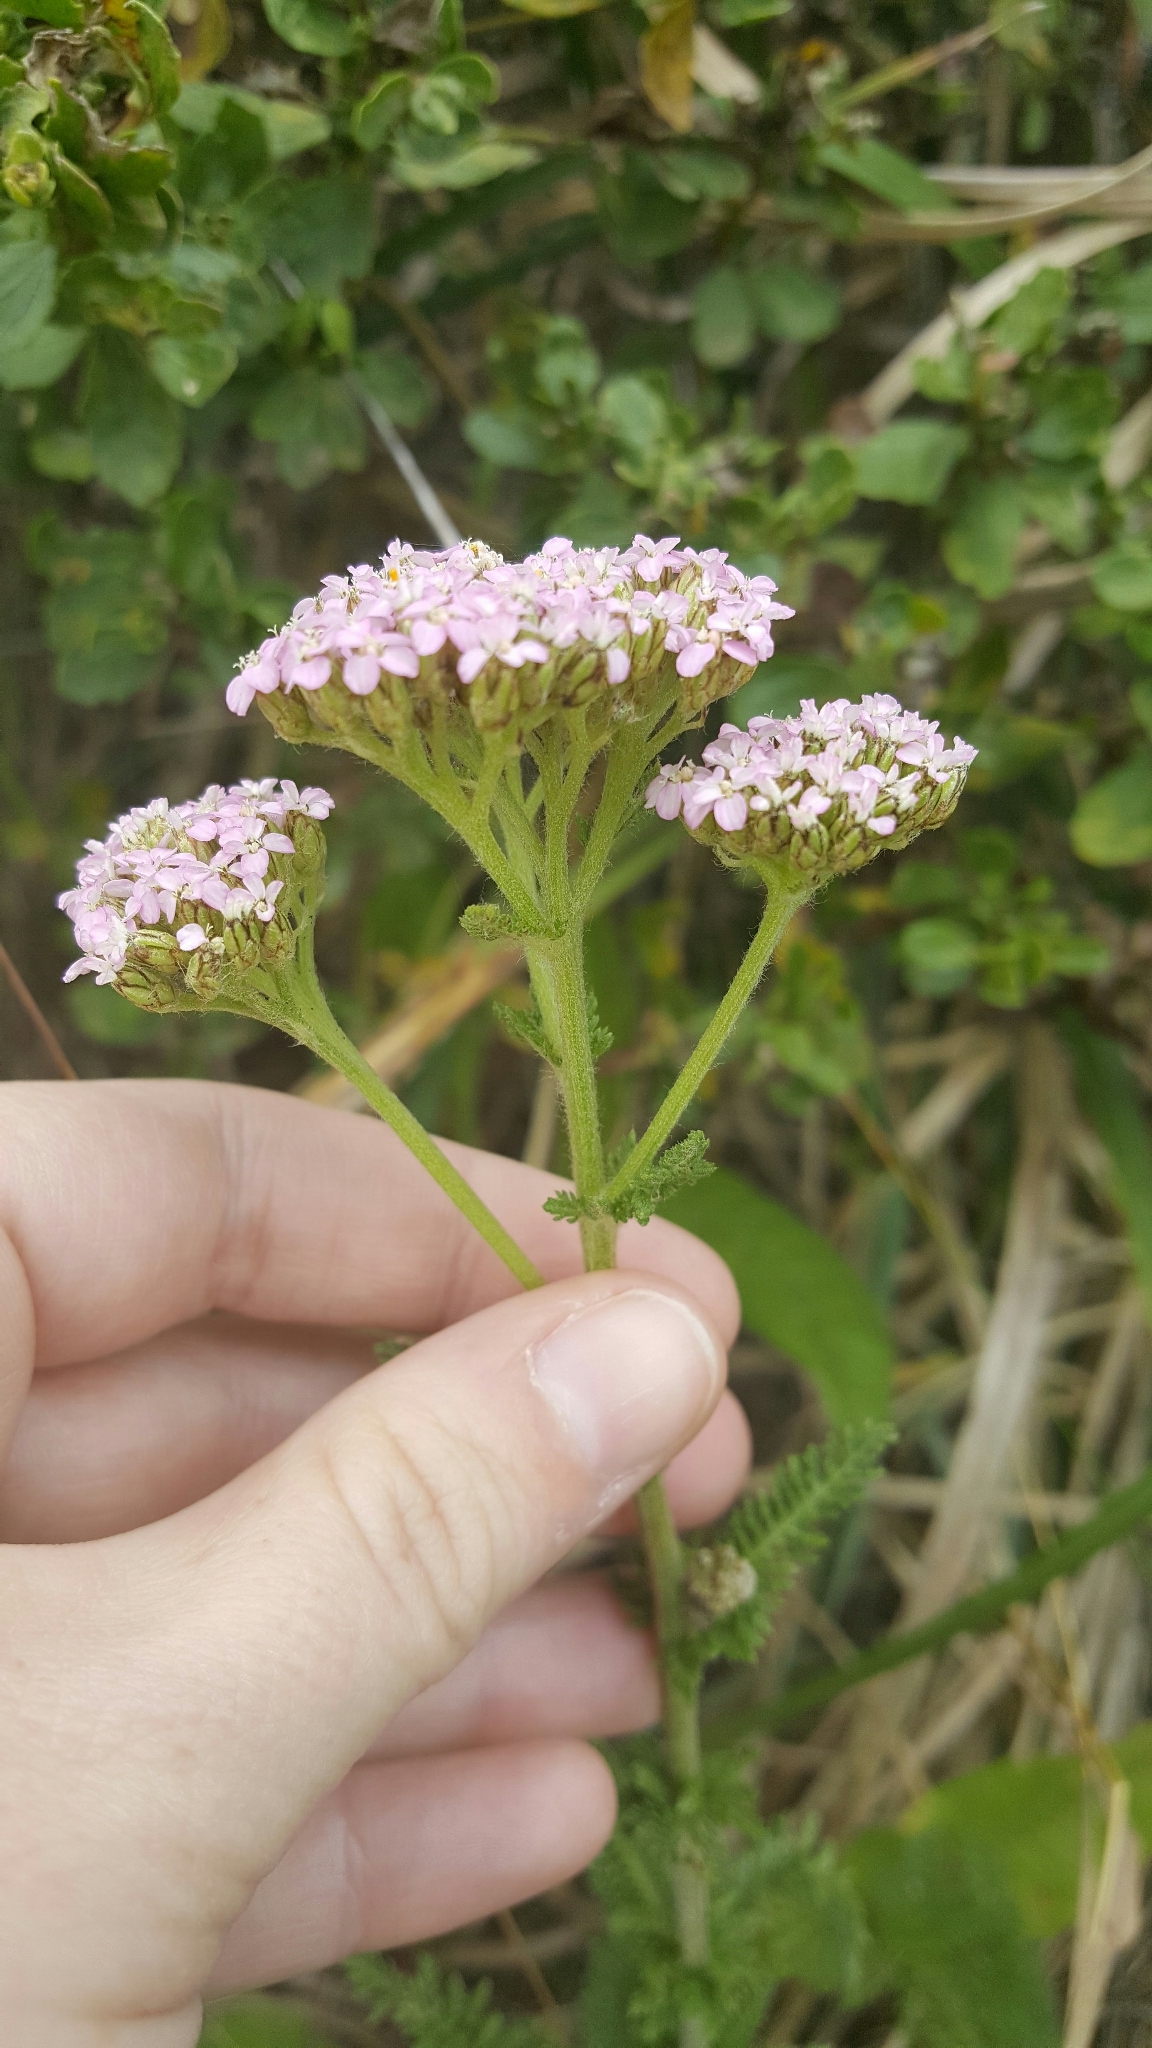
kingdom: Plantae
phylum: Tracheophyta
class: Magnoliopsida
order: Asterales
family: Asteraceae
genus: Achillea
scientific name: Achillea millefolium
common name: Yarrow
